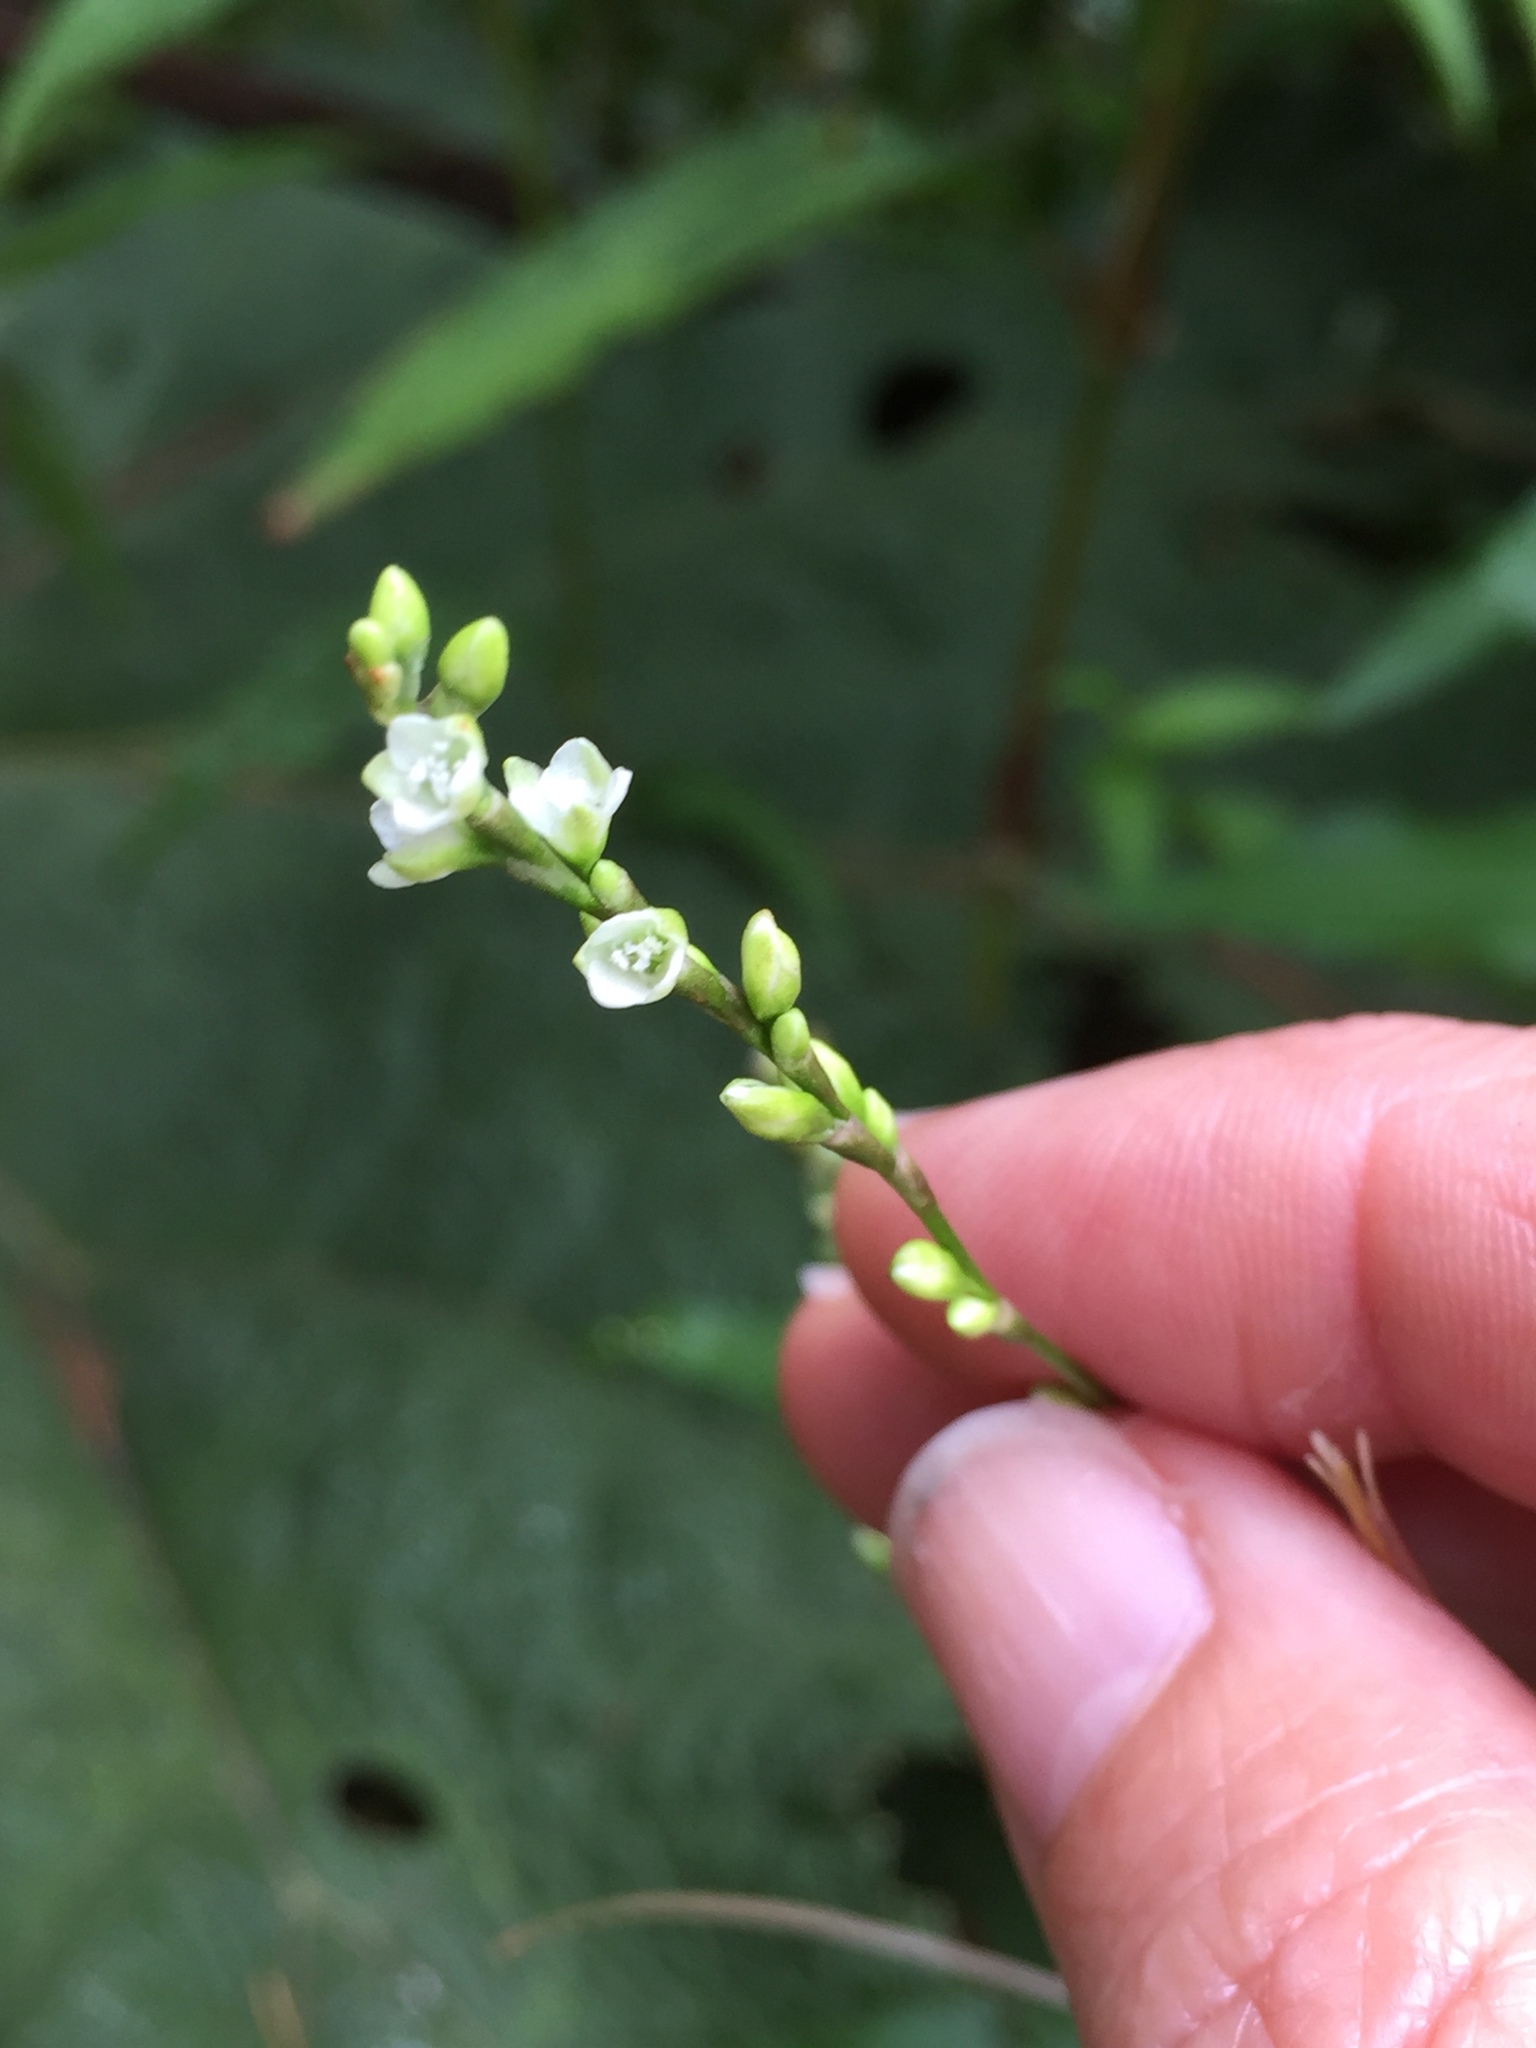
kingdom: Plantae
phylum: Tracheophyta
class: Magnoliopsida
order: Caryophyllales
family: Polygonaceae
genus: Persicaria
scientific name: Persicaria punctata
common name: Dotted smartweed
